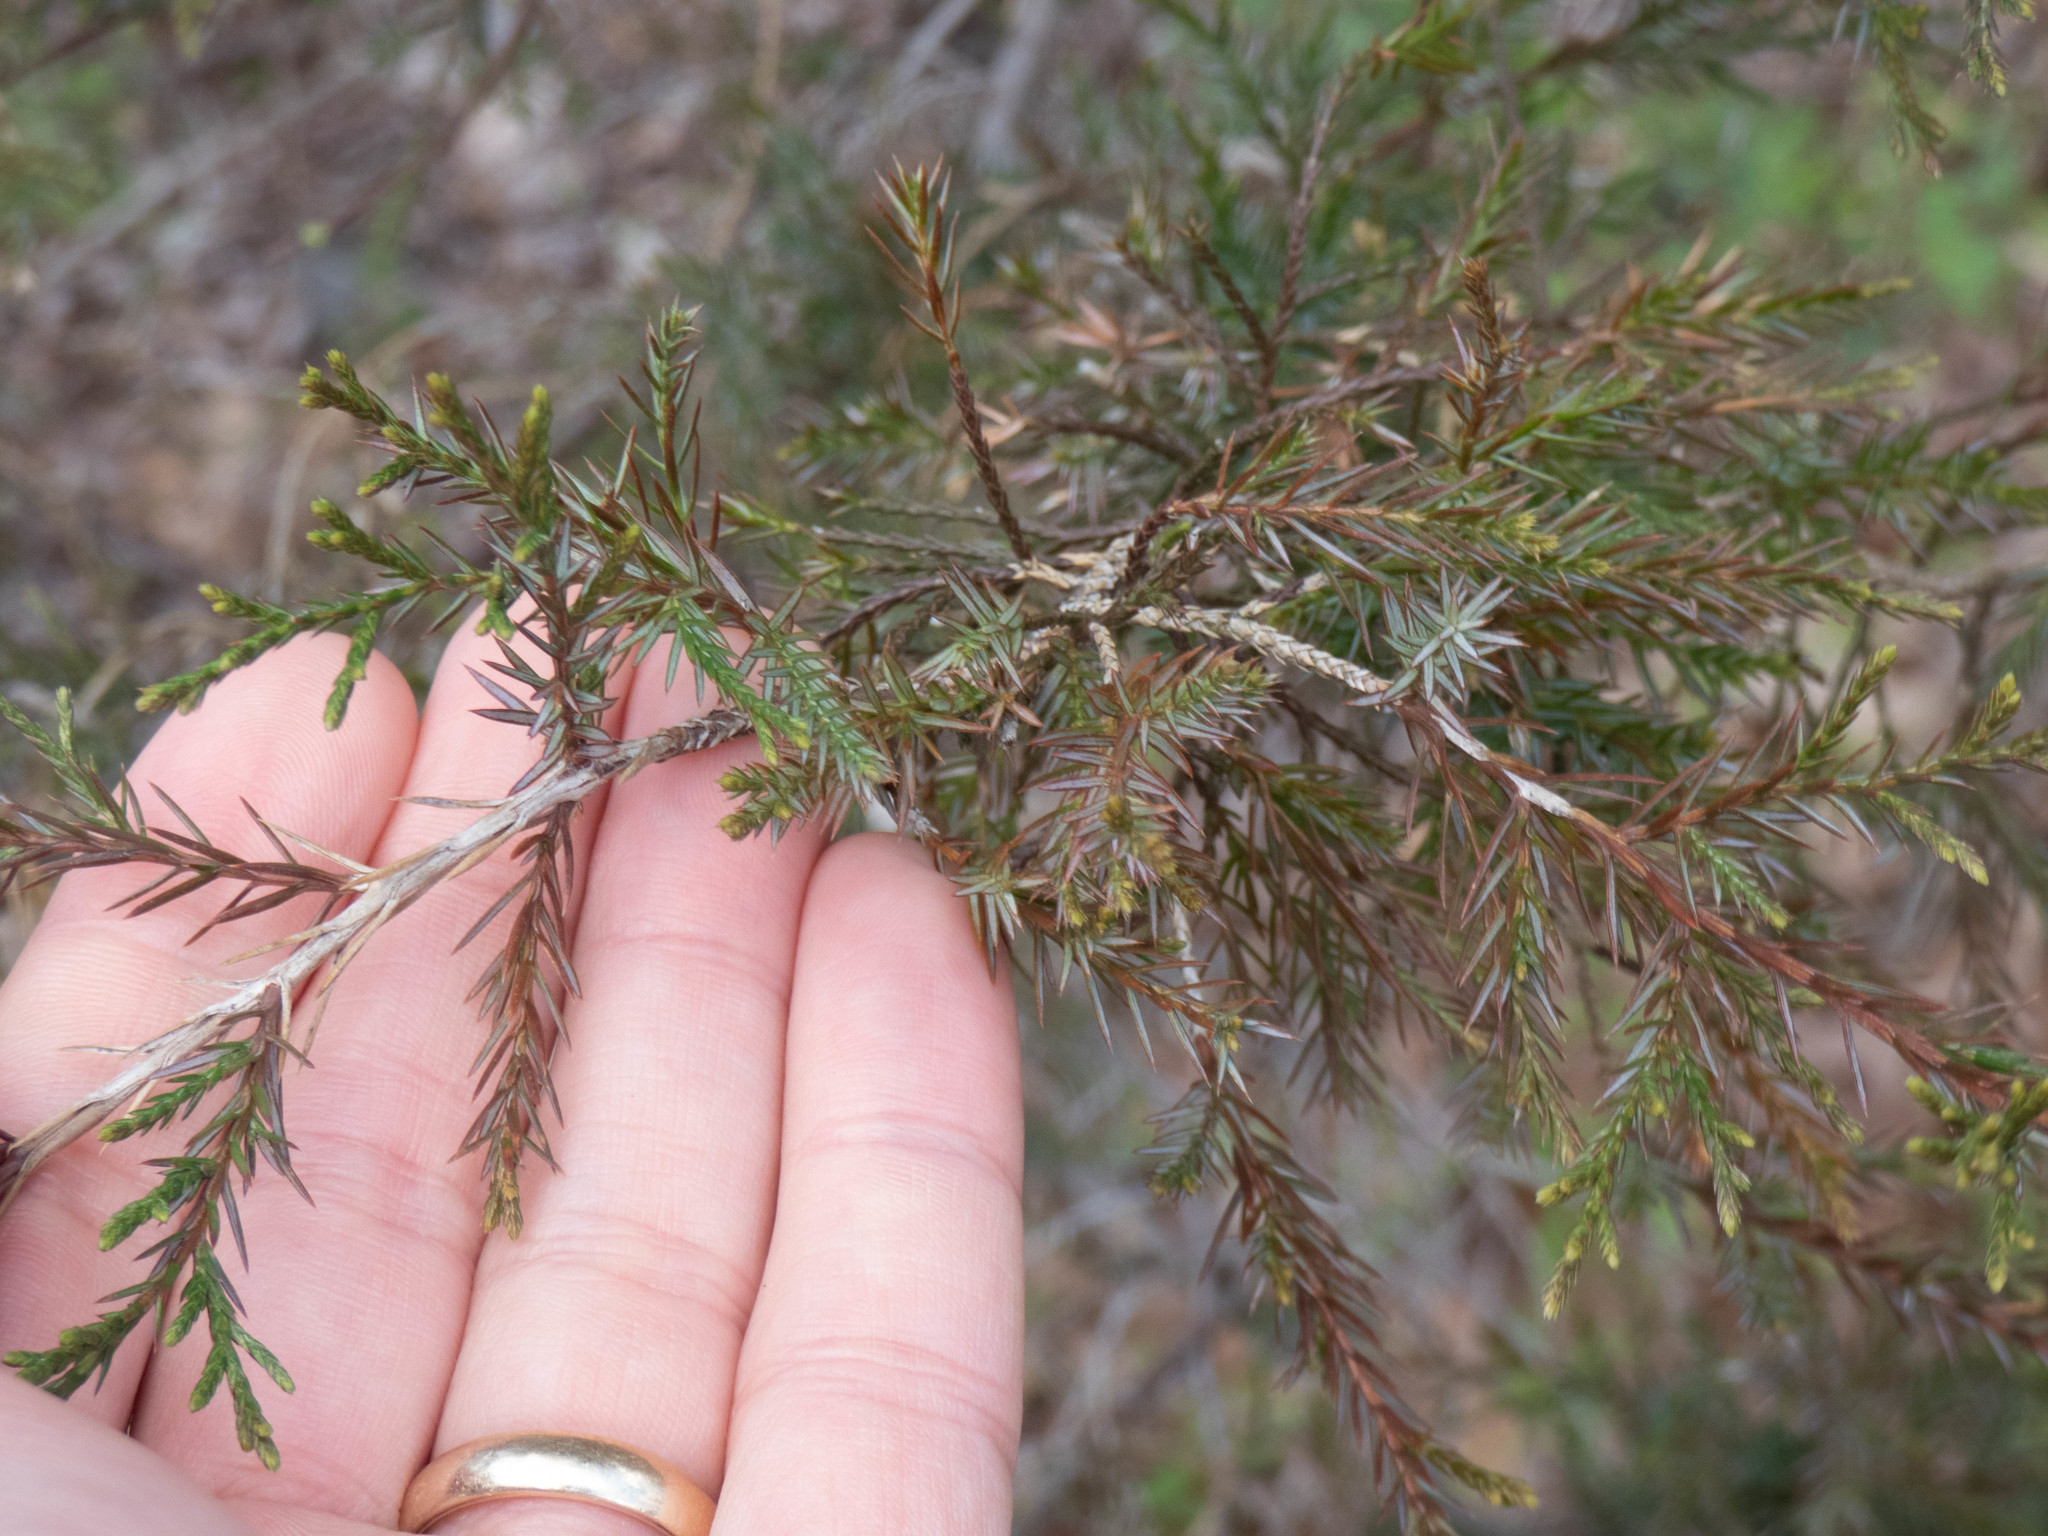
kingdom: Plantae
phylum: Tracheophyta
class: Pinopsida
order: Pinales
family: Cupressaceae
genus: Juniperus
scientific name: Juniperus virginiana
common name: Red juniper
